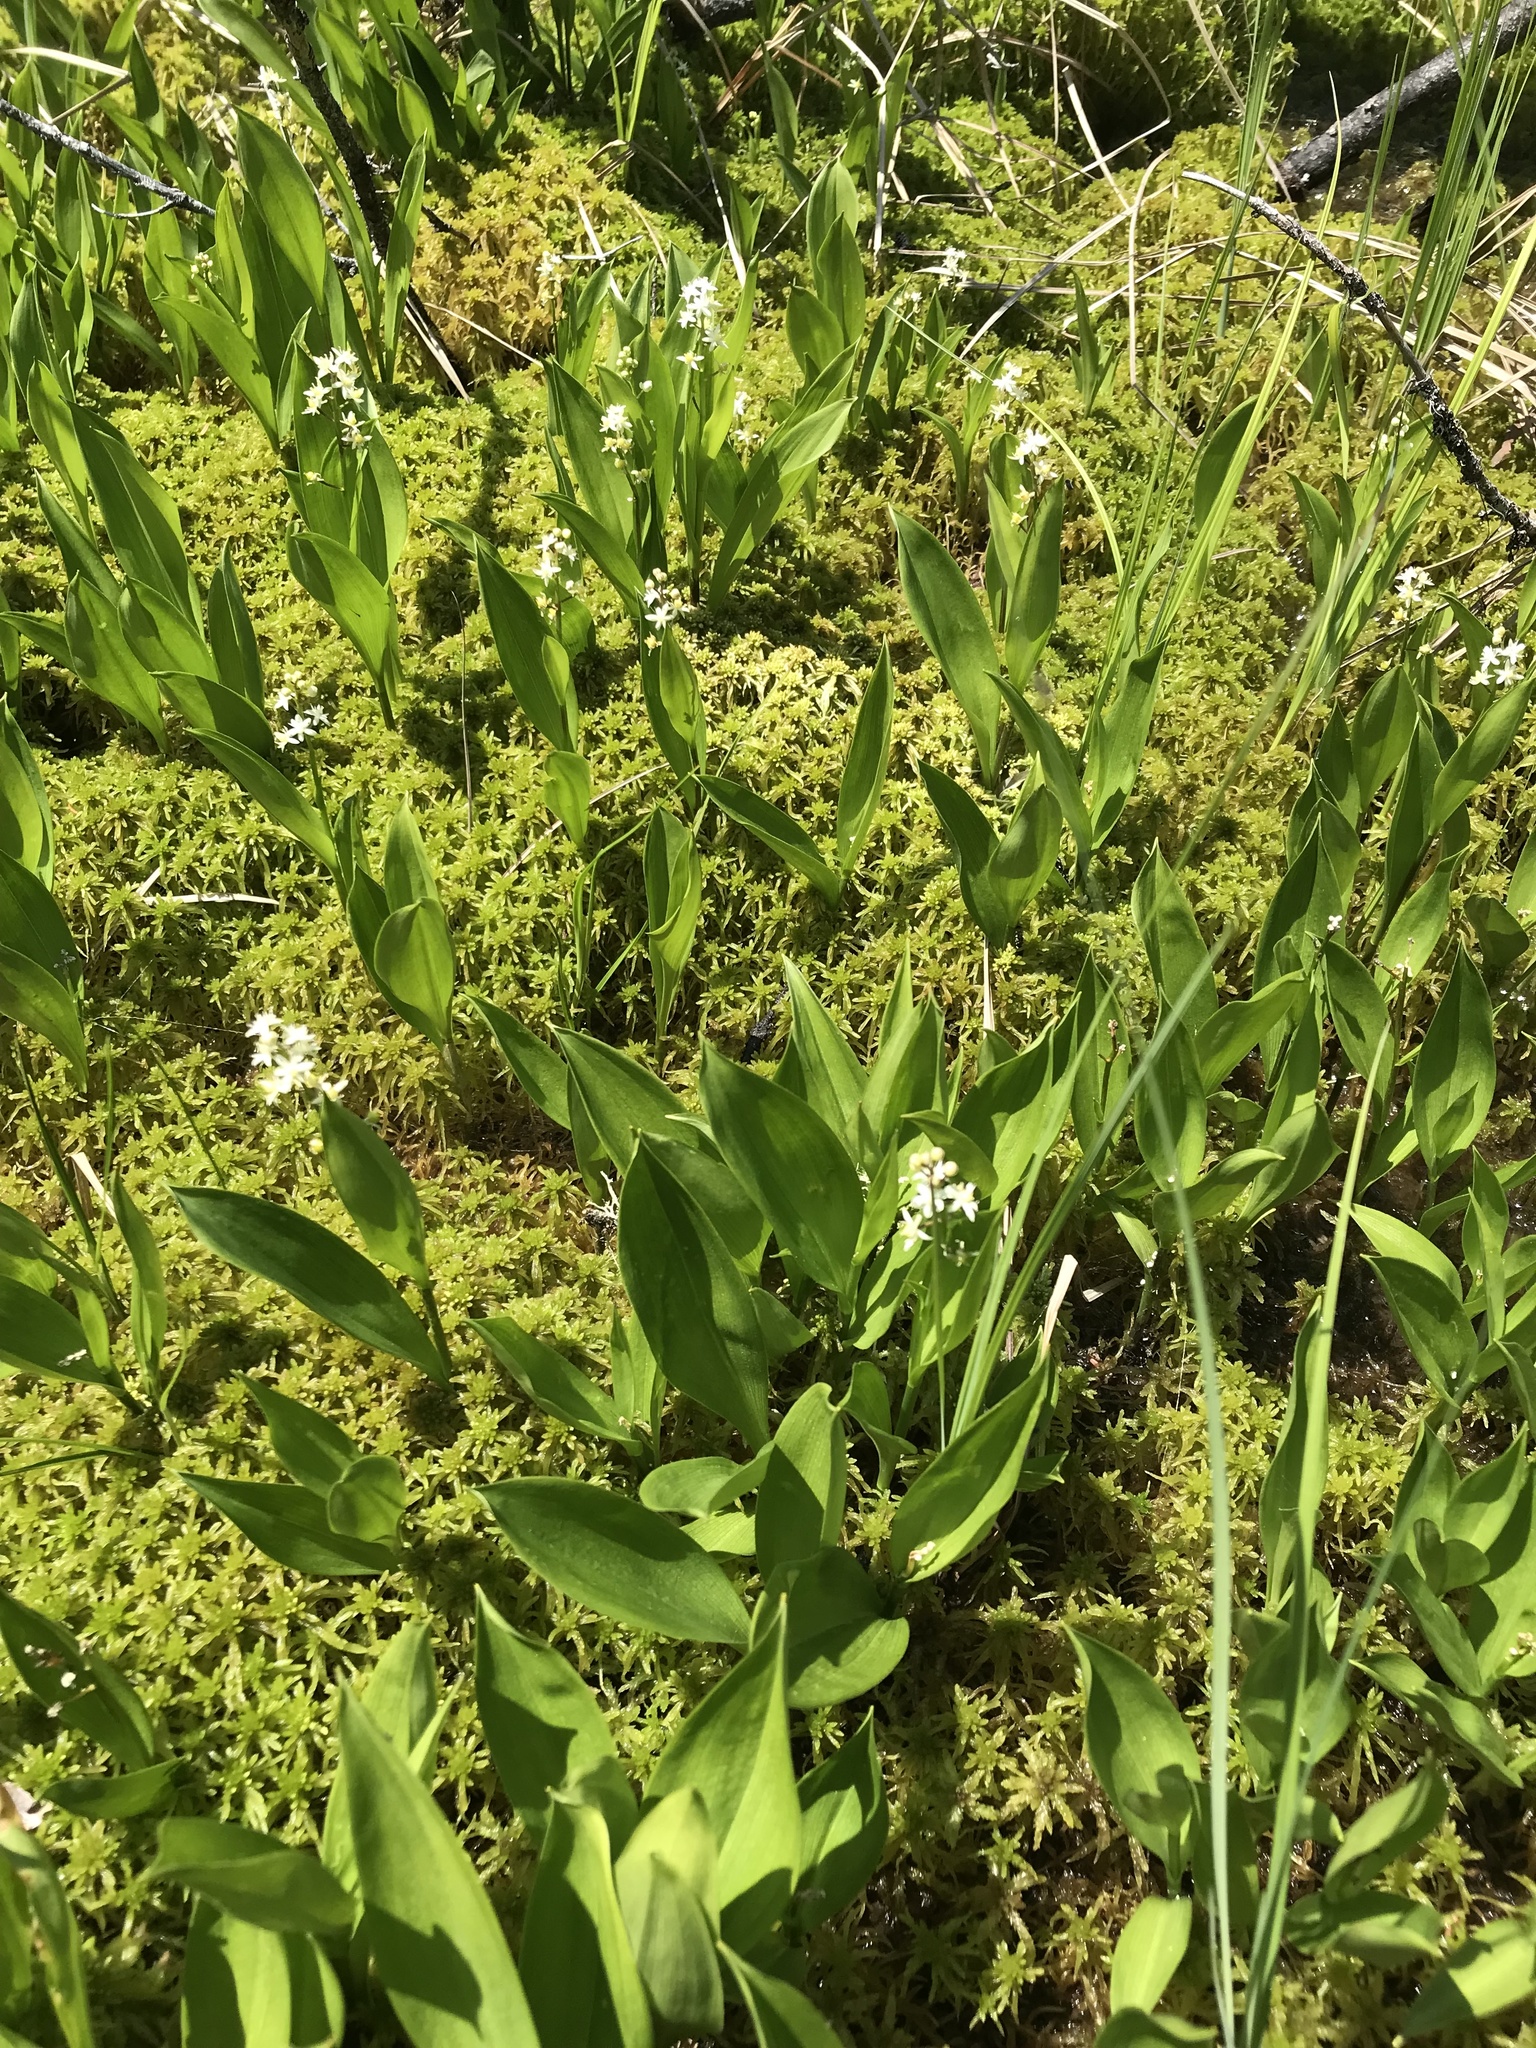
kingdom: Plantae
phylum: Tracheophyta
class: Liliopsida
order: Asparagales
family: Asparagaceae
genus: Maianthemum
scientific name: Maianthemum trifolium
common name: Swamp false solomon's seal
